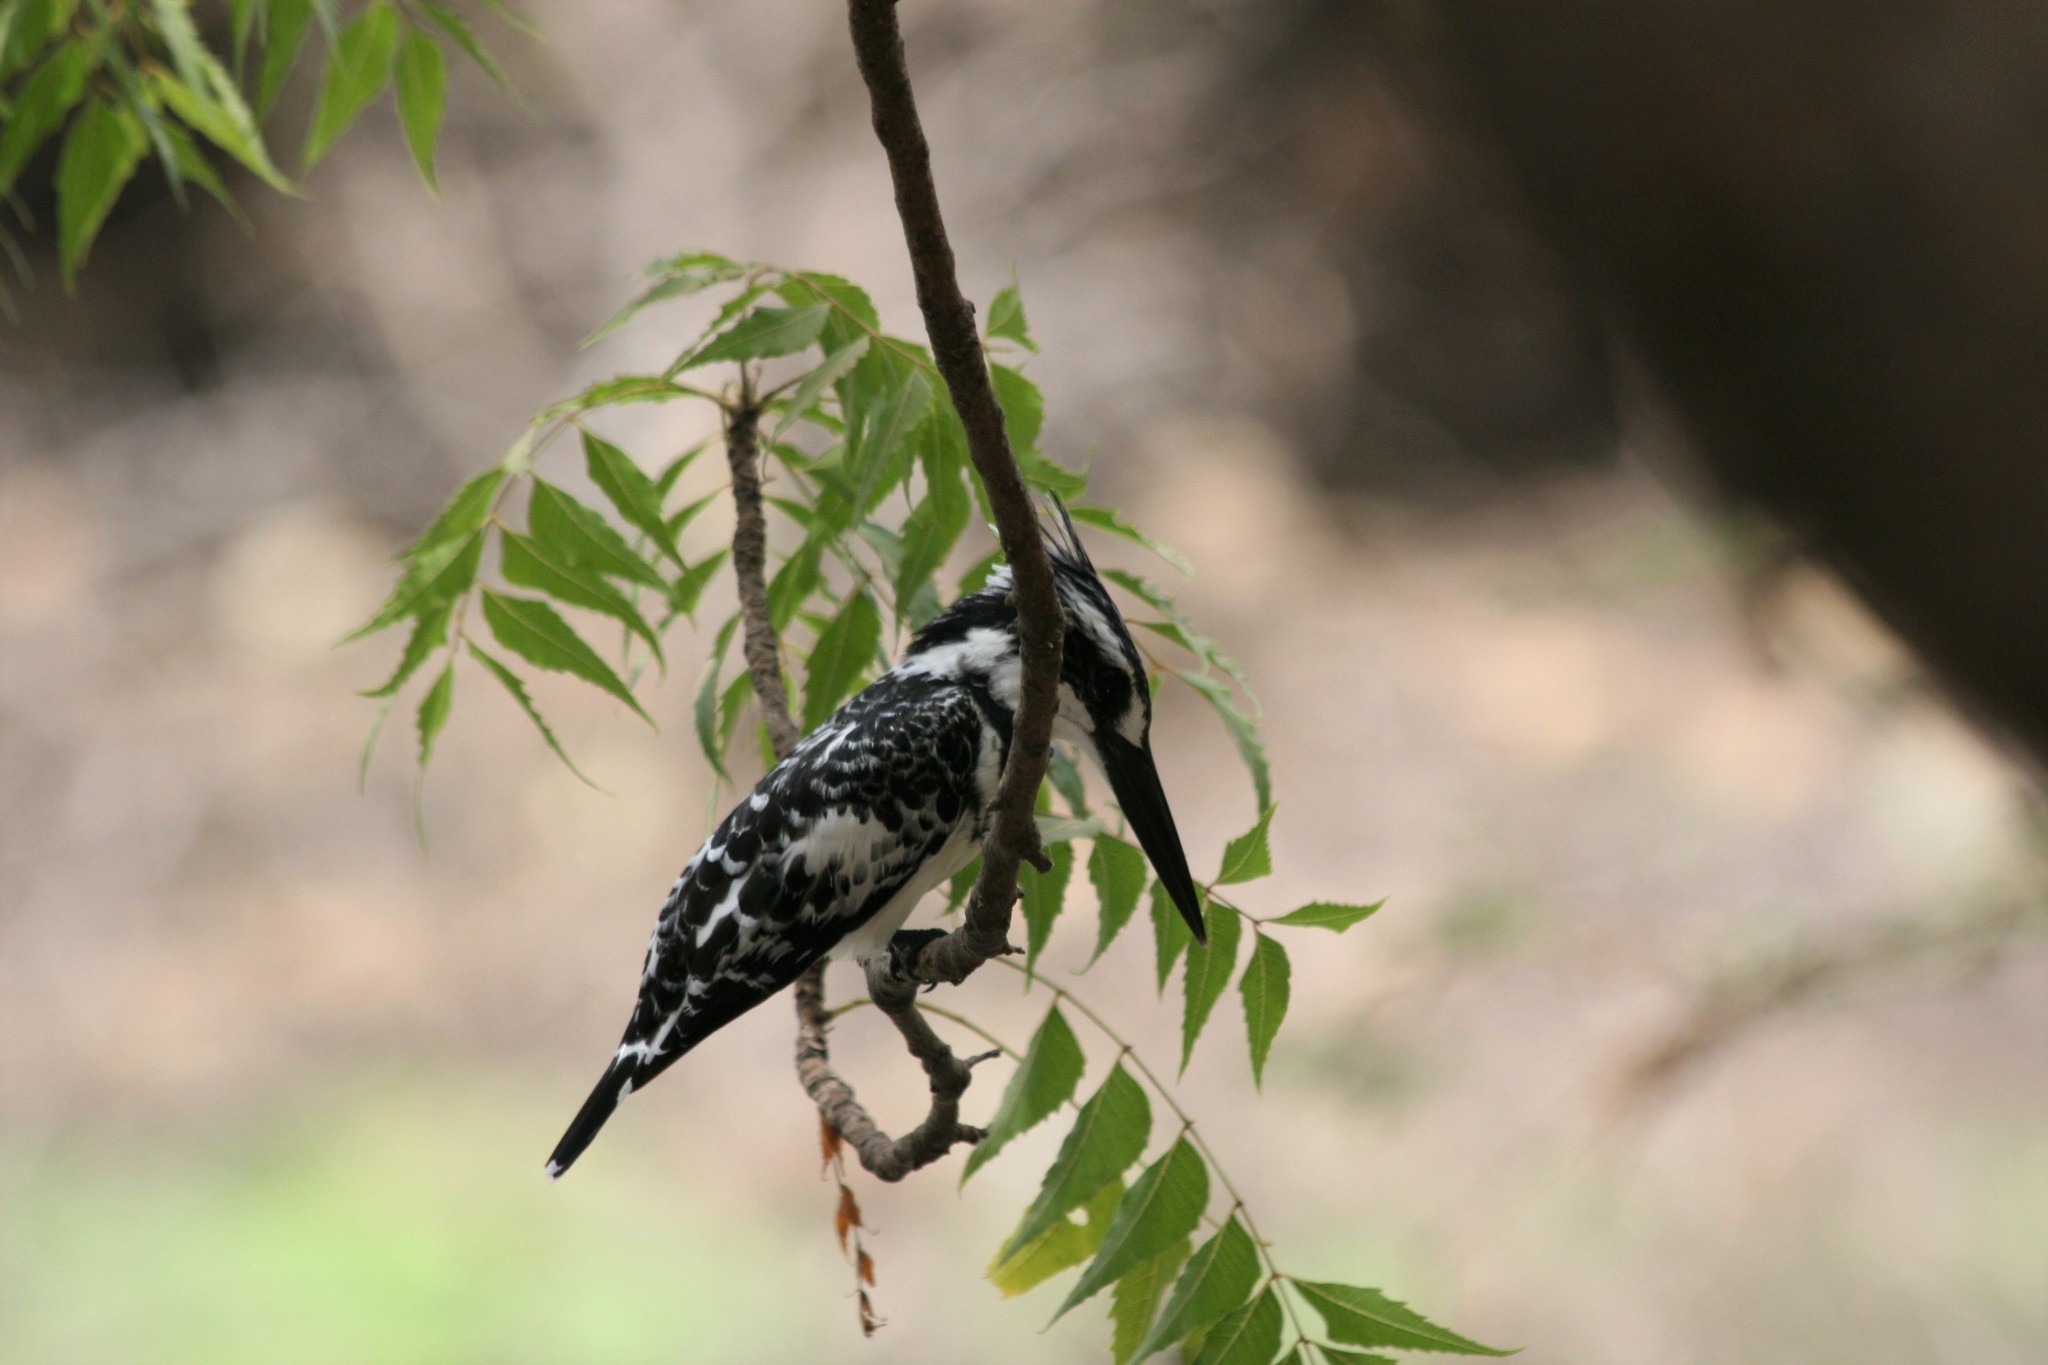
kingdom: Animalia
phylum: Chordata
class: Aves
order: Coraciiformes
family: Alcedinidae
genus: Ceryle
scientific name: Ceryle rudis
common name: Pied kingfisher
